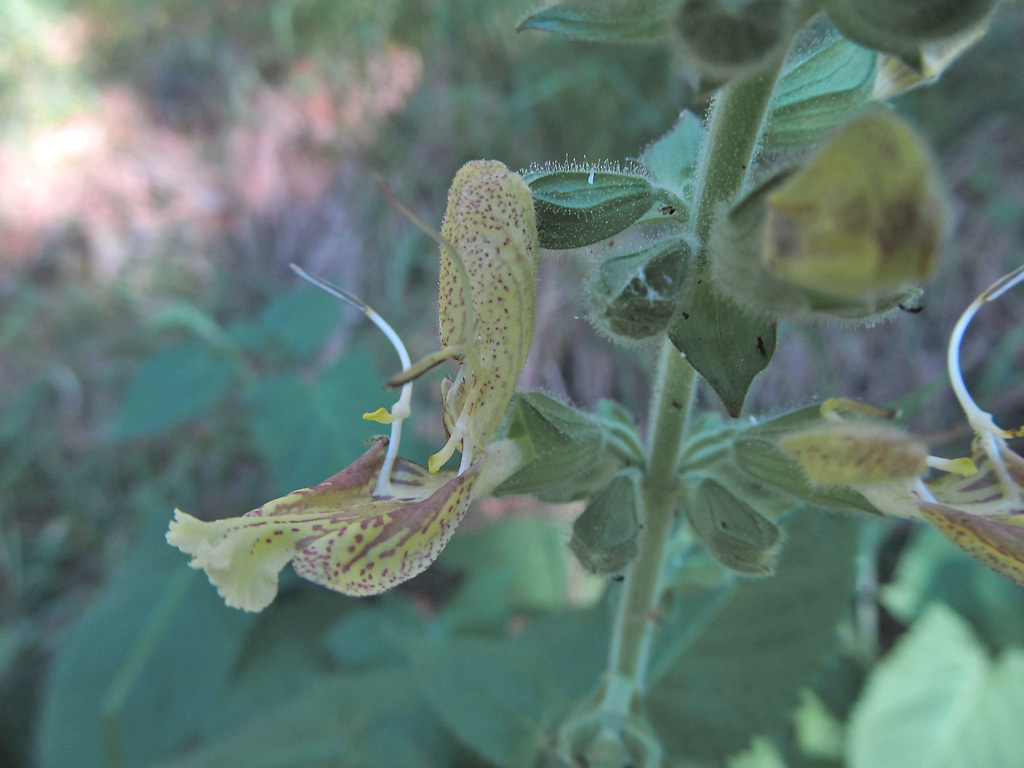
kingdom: Plantae
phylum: Tracheophyta
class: Magnoliopsida
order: Lamiales
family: Lamiaceae
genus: Salvia
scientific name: Salvia glutinosa
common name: Sticky clary
